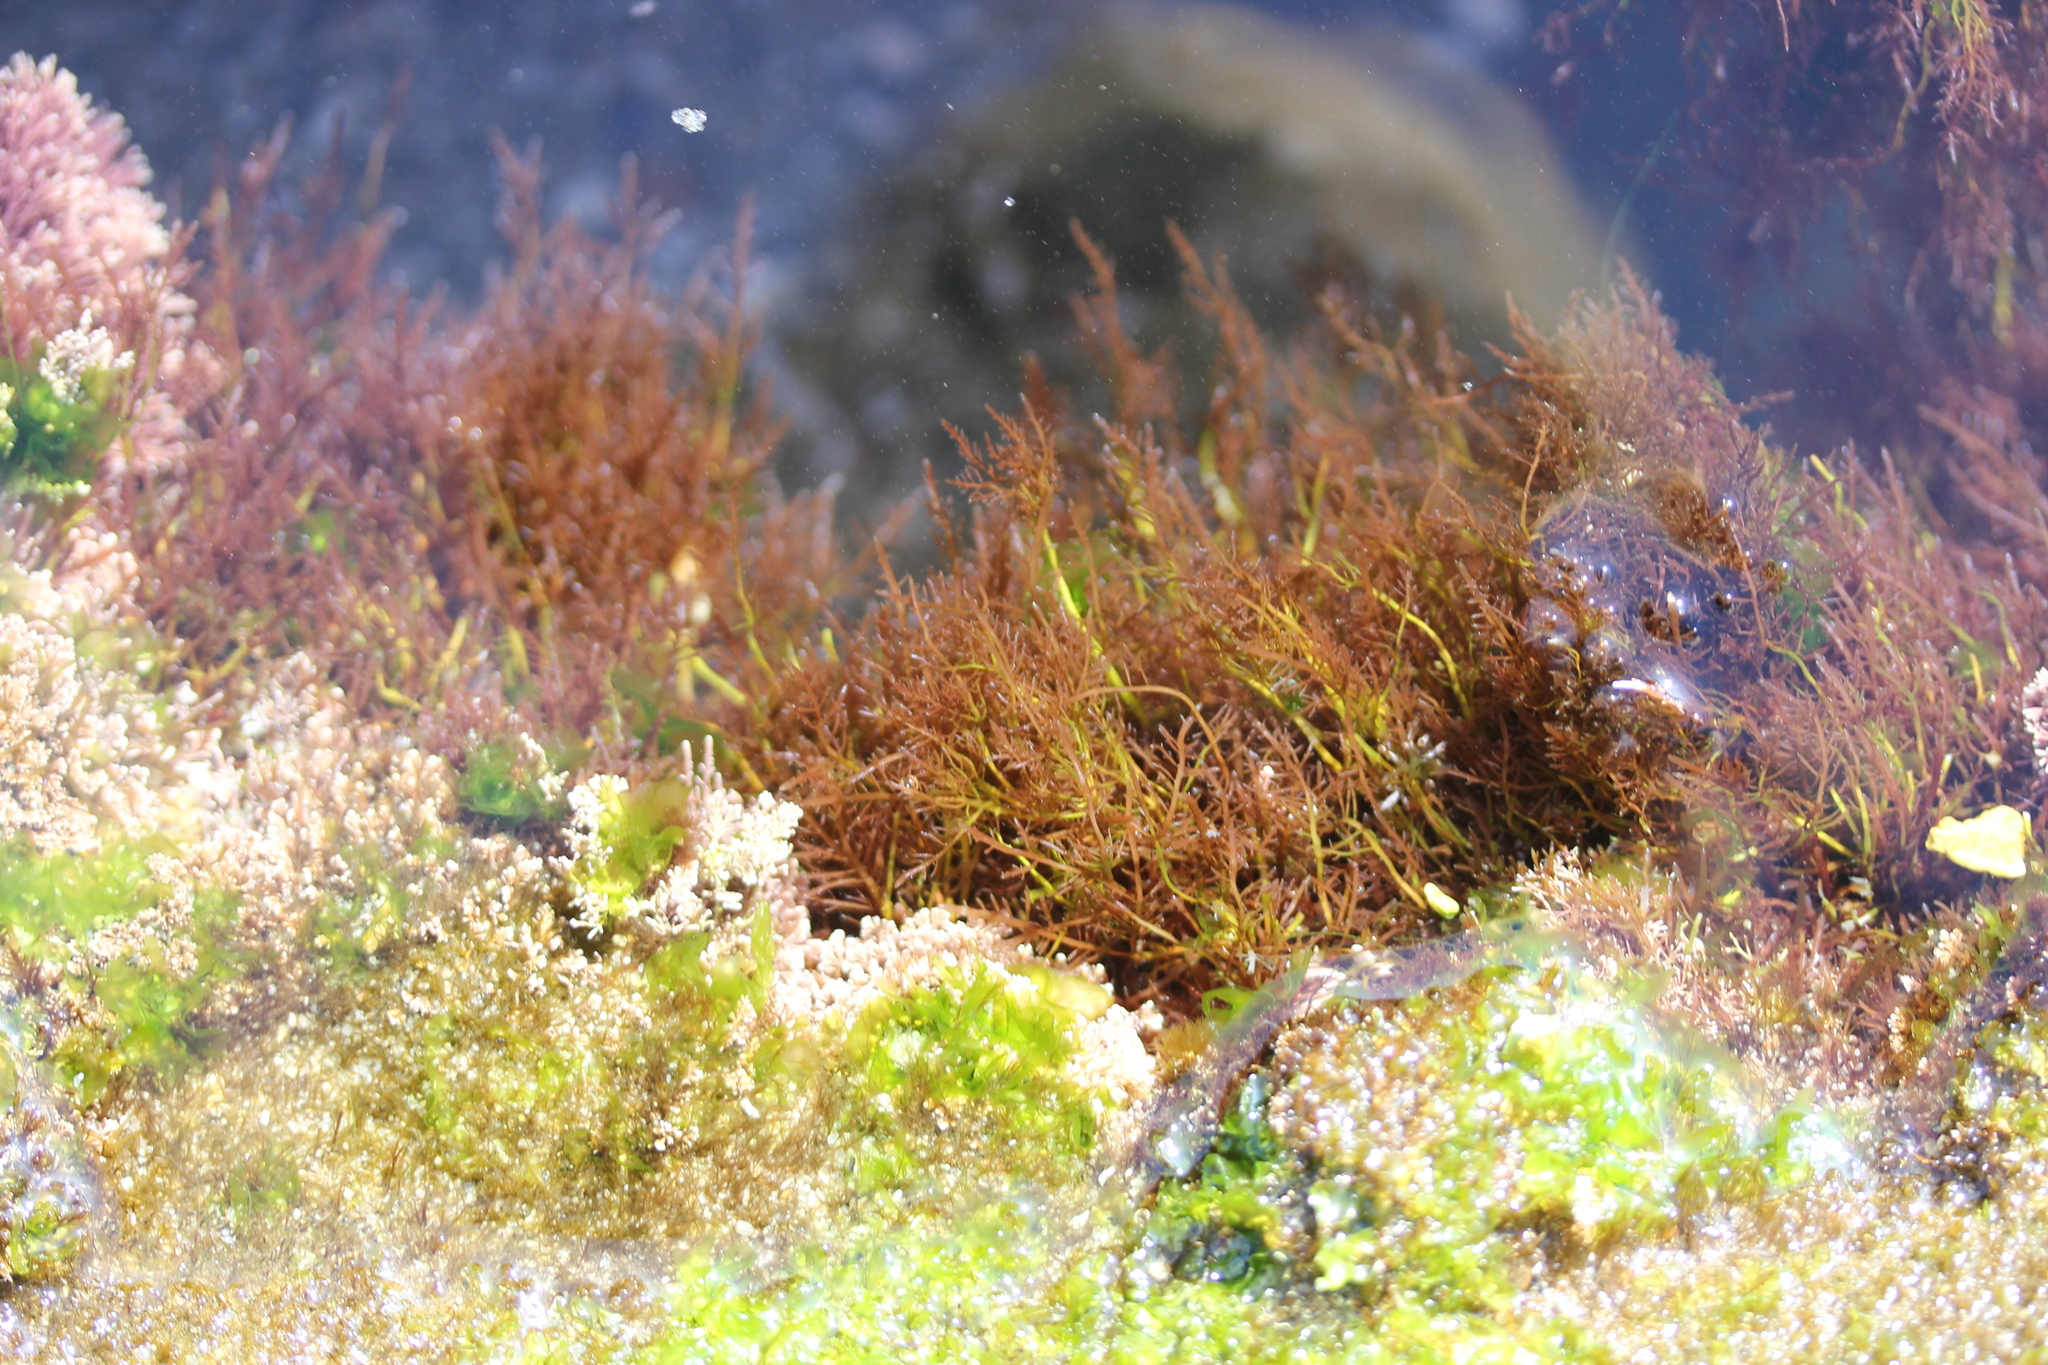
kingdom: Plantae
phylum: Rhodophyta
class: Florideophyceae
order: Gelidiales
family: Pterocladiaceae
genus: Pterocladiella
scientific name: Pterocladiella capillacea
